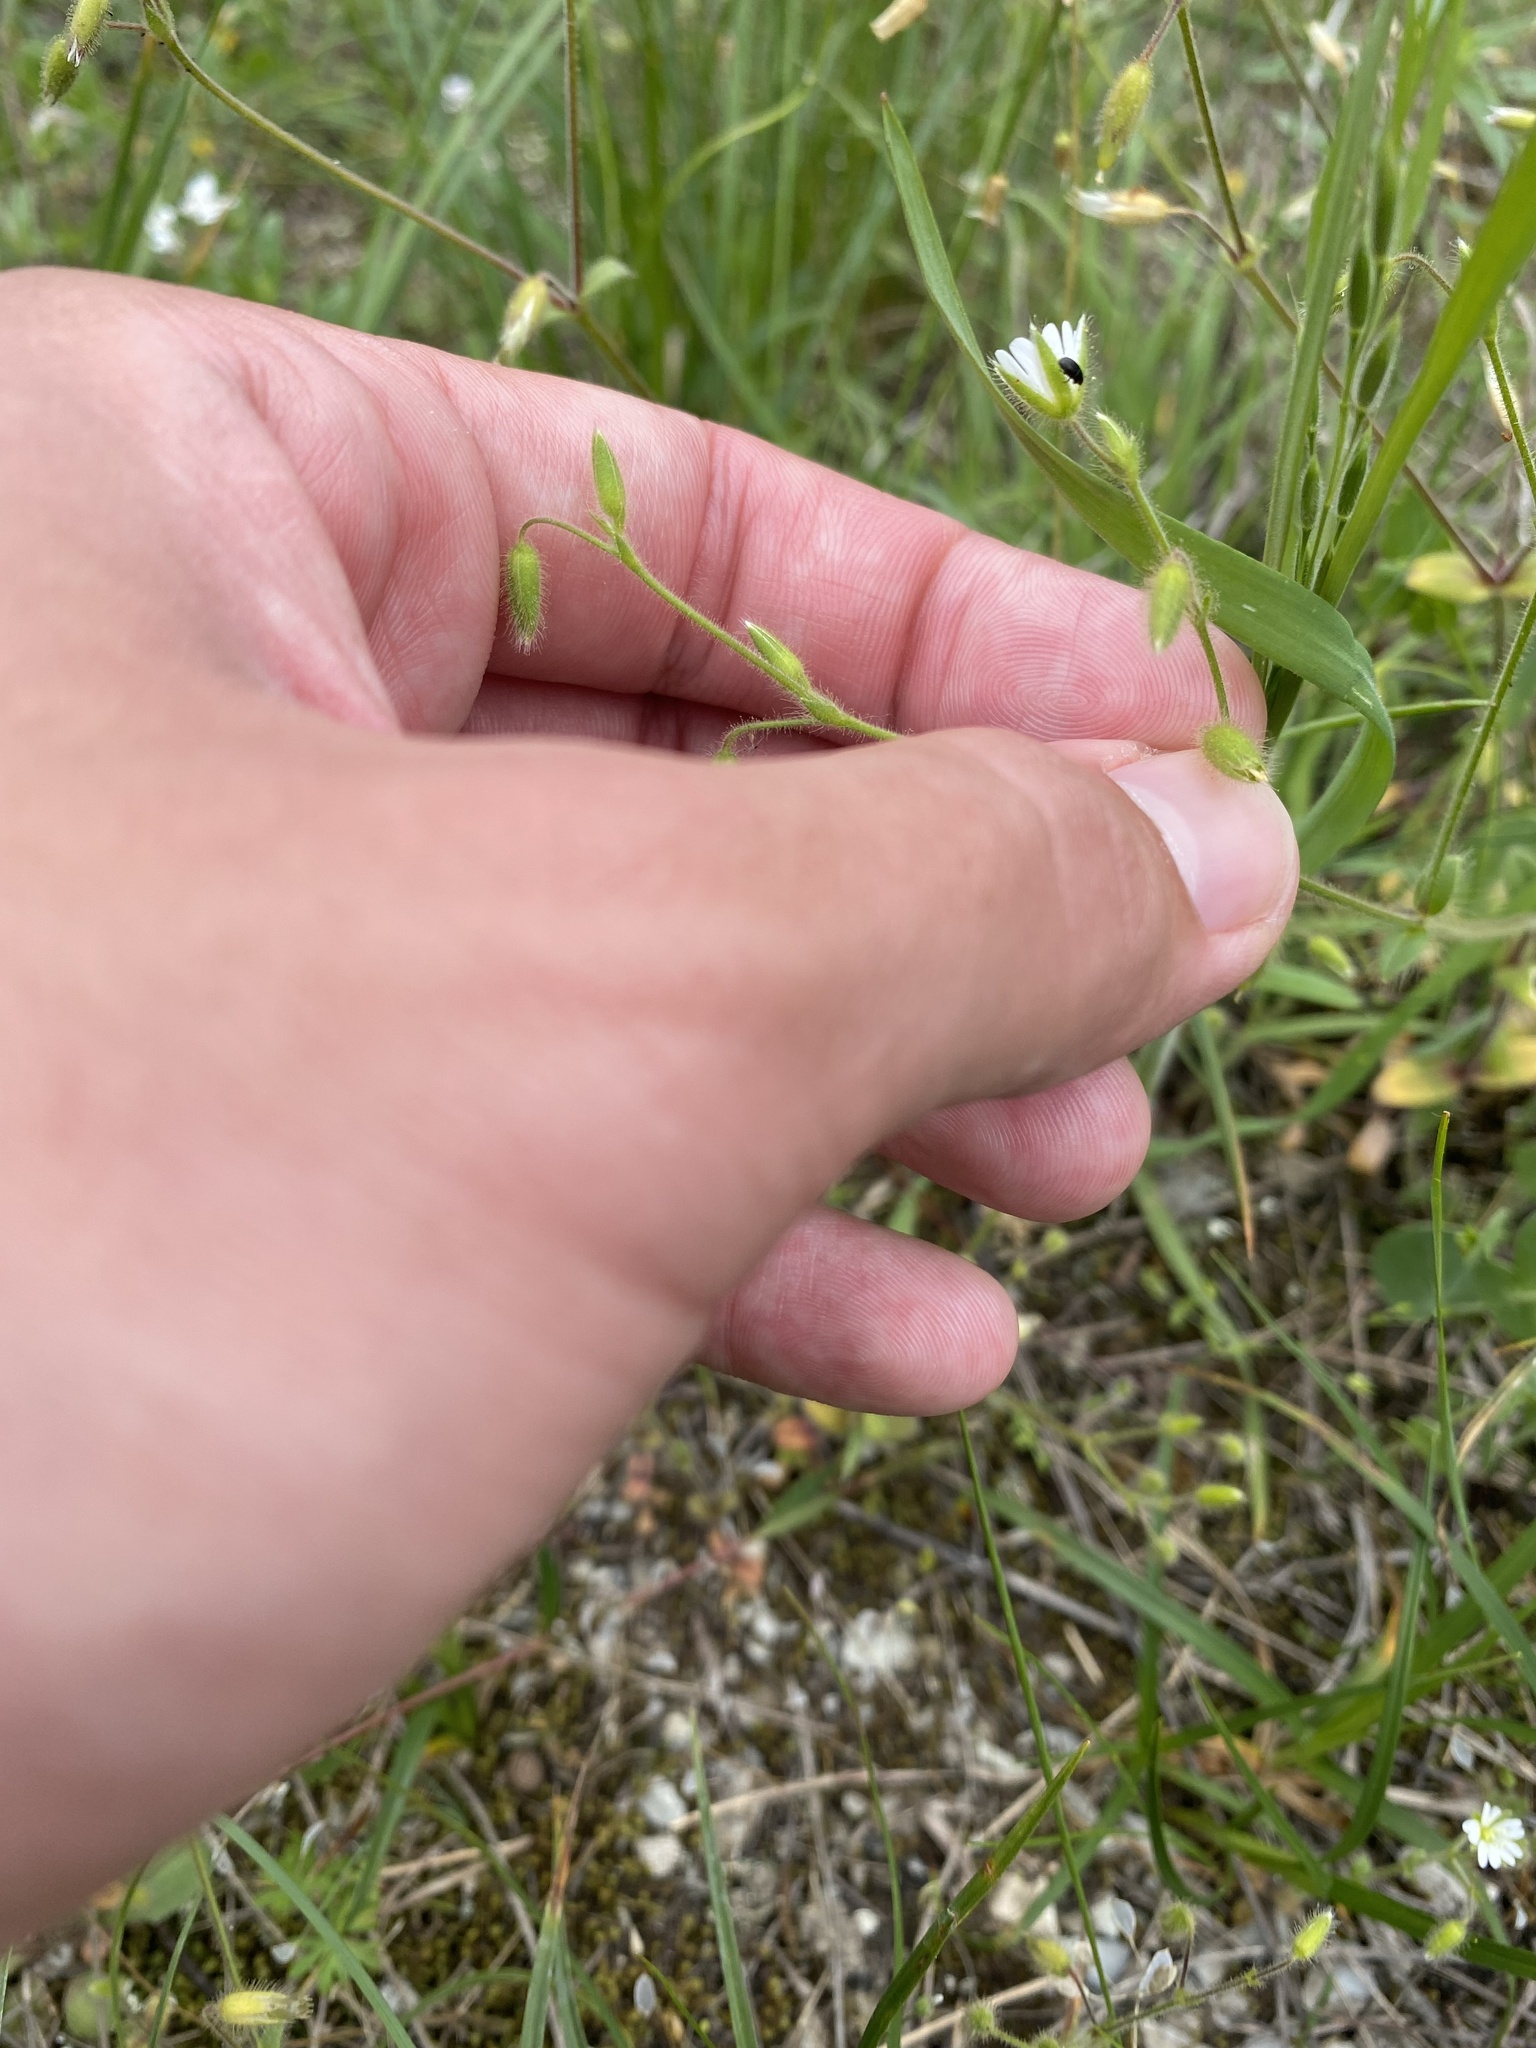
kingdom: Plantae
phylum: Tracheophyta
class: Magnoliopsida
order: Caryophyllales
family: Caryophyllaceae
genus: Cerastium
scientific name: Cerastium semidecandrum
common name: Little mouse-ear
